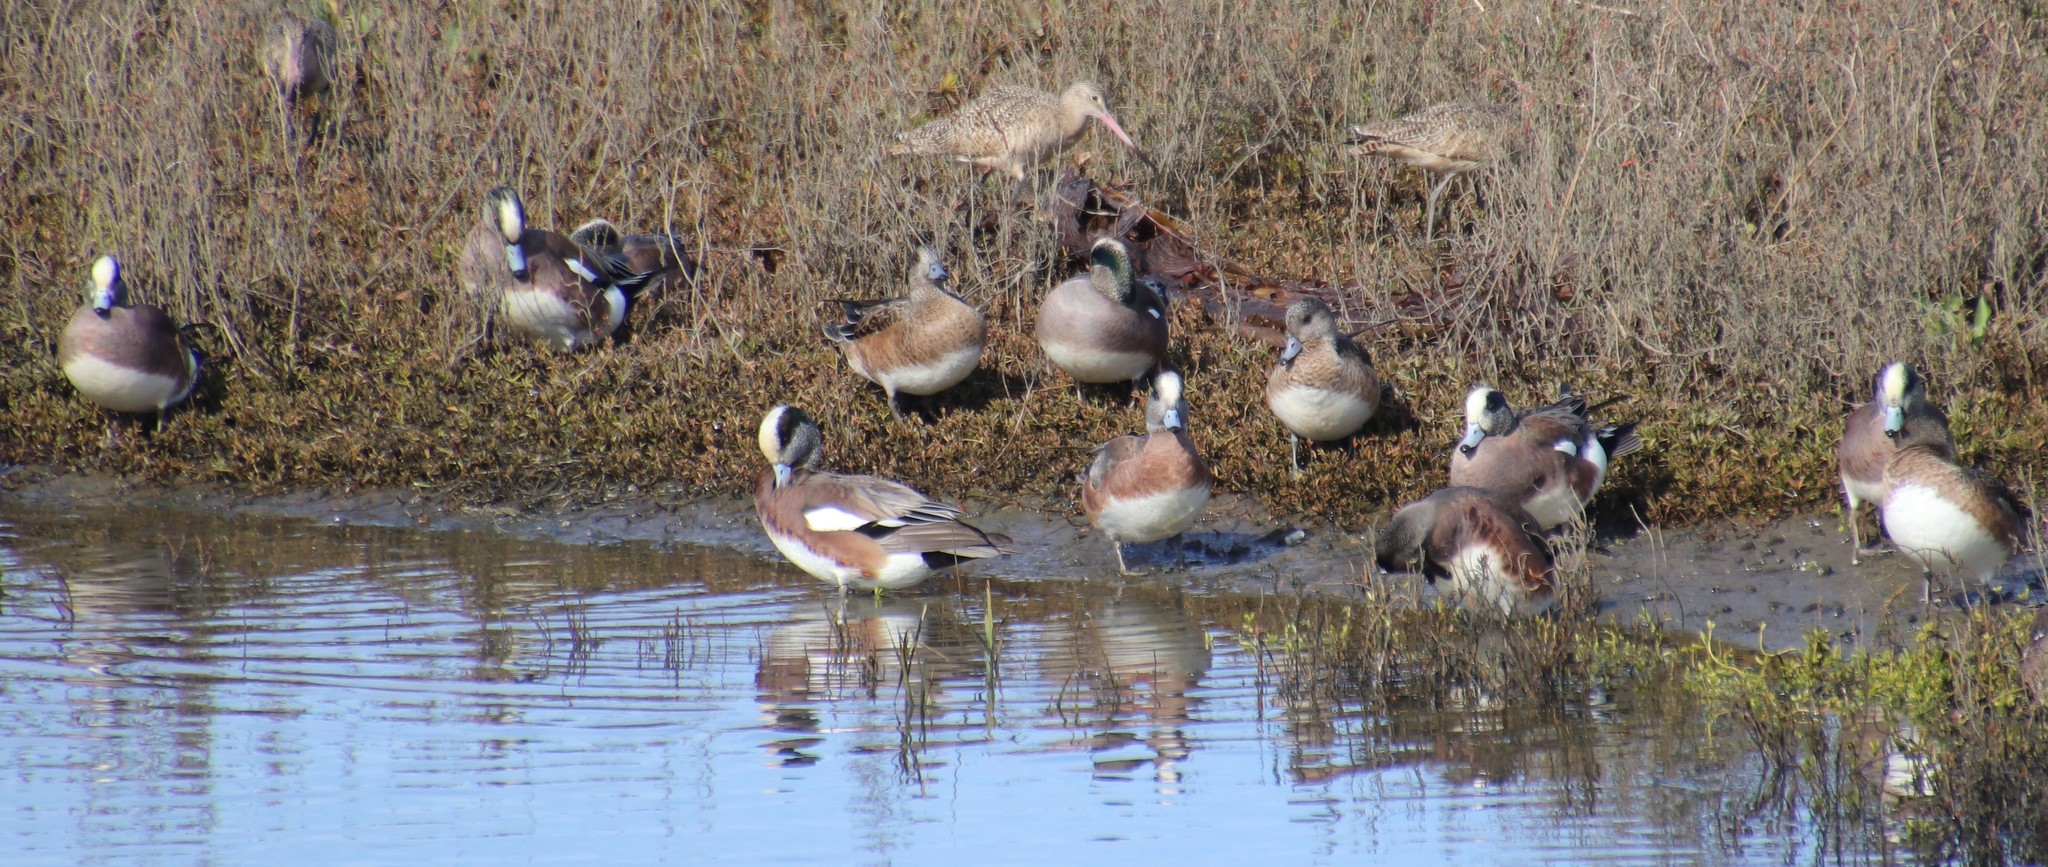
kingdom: Animalia
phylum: Chordata
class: Aves
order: Anseriformes
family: Anatidae
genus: Mareca
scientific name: Mareca americana
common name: American wigeon
